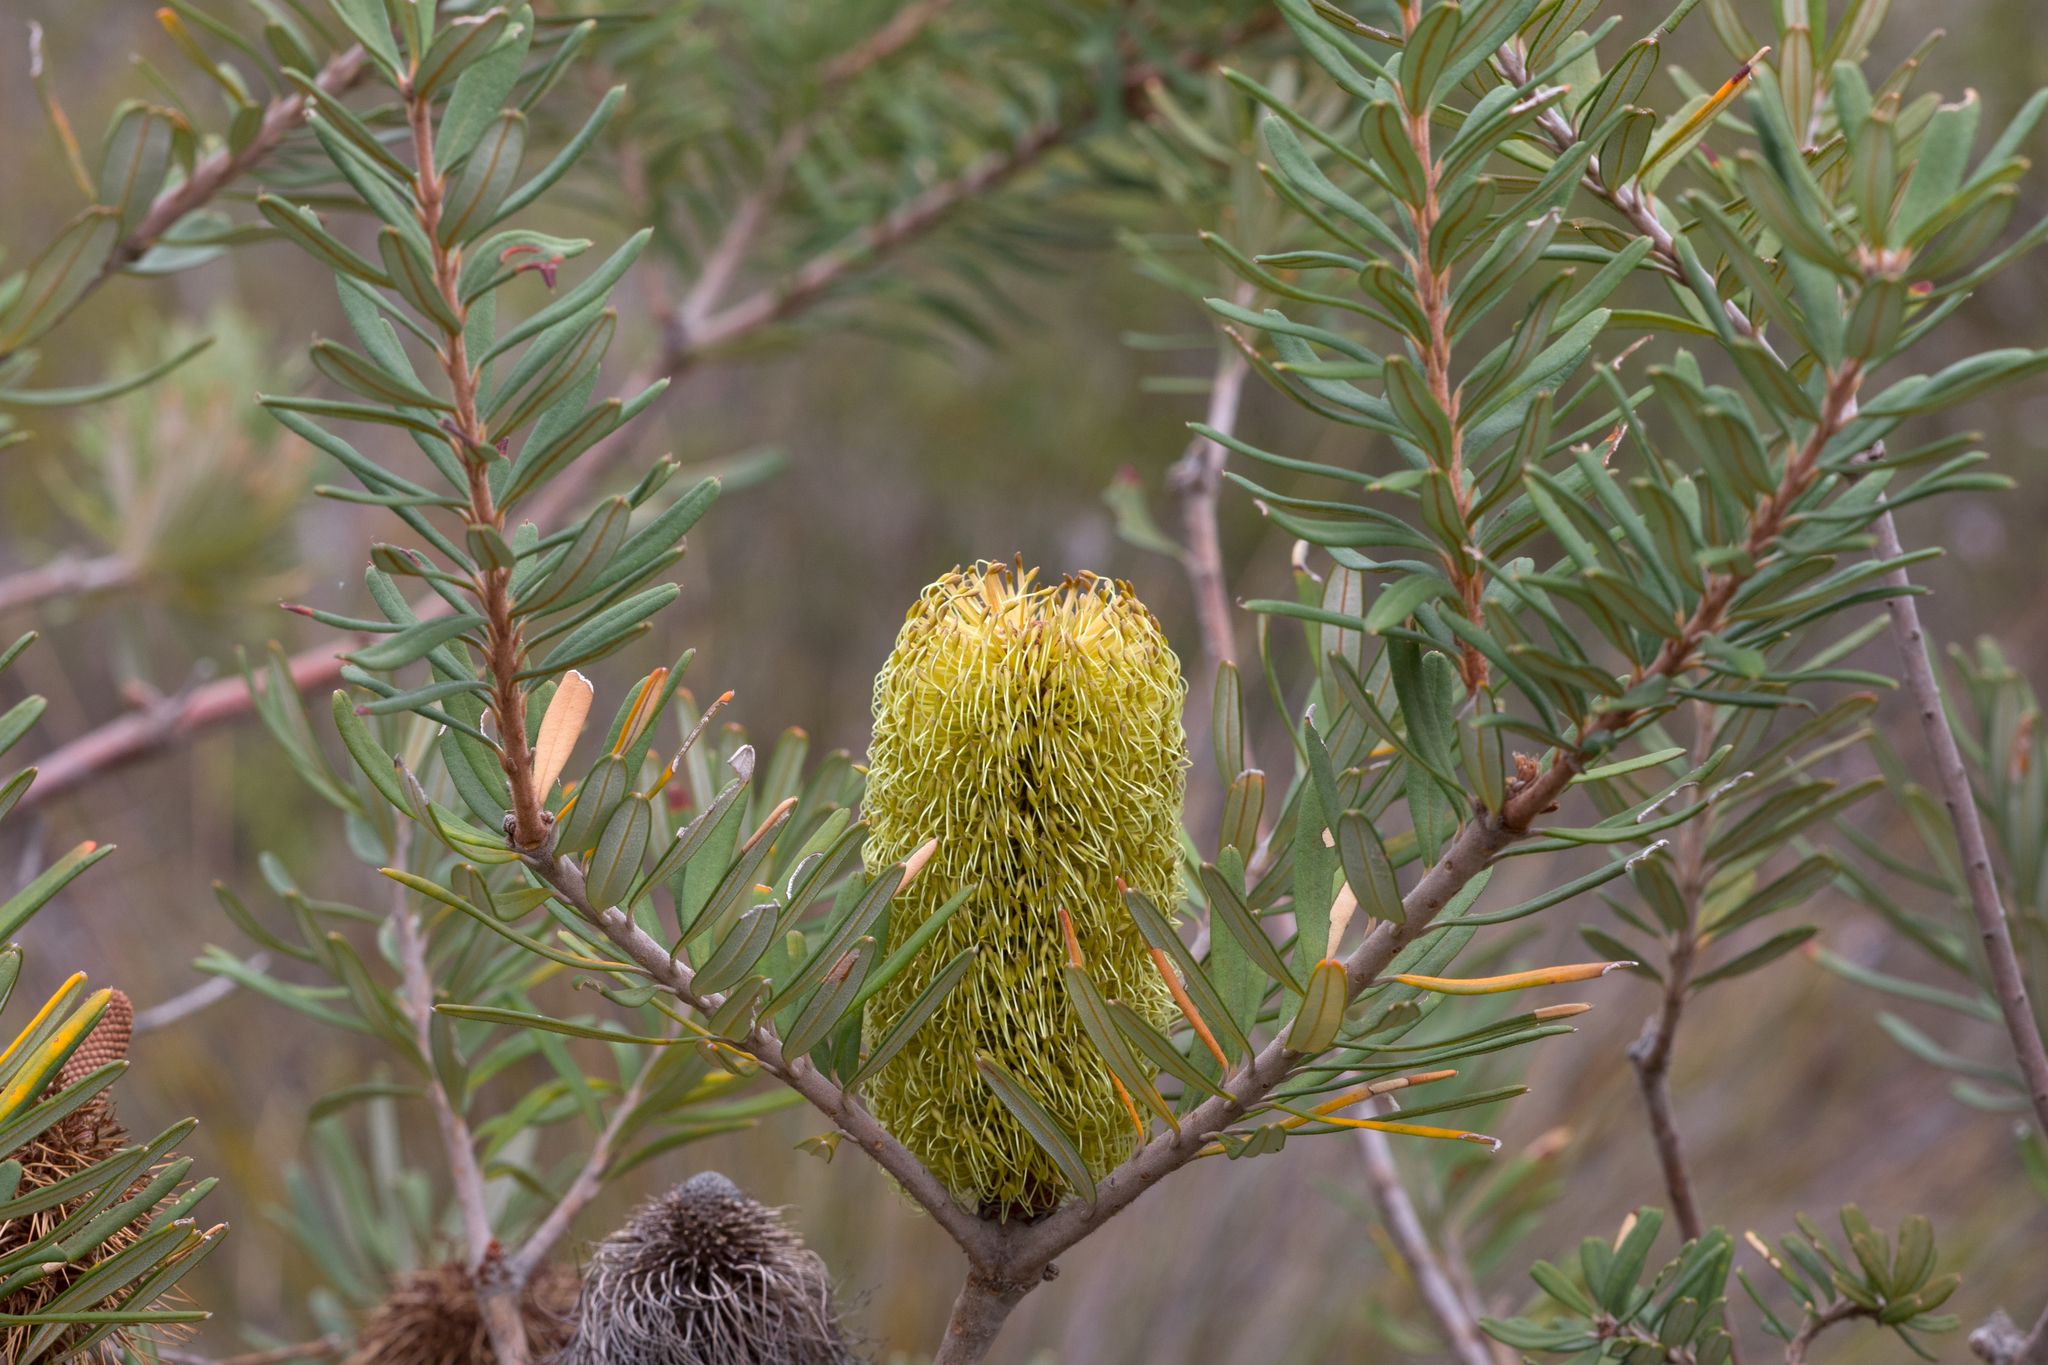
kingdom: Plantae
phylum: Tracheophyta
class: Magnoliopsida
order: Proteales
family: Proteaceae
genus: Banksia
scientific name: Banksia marginata
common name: Silver banksia
